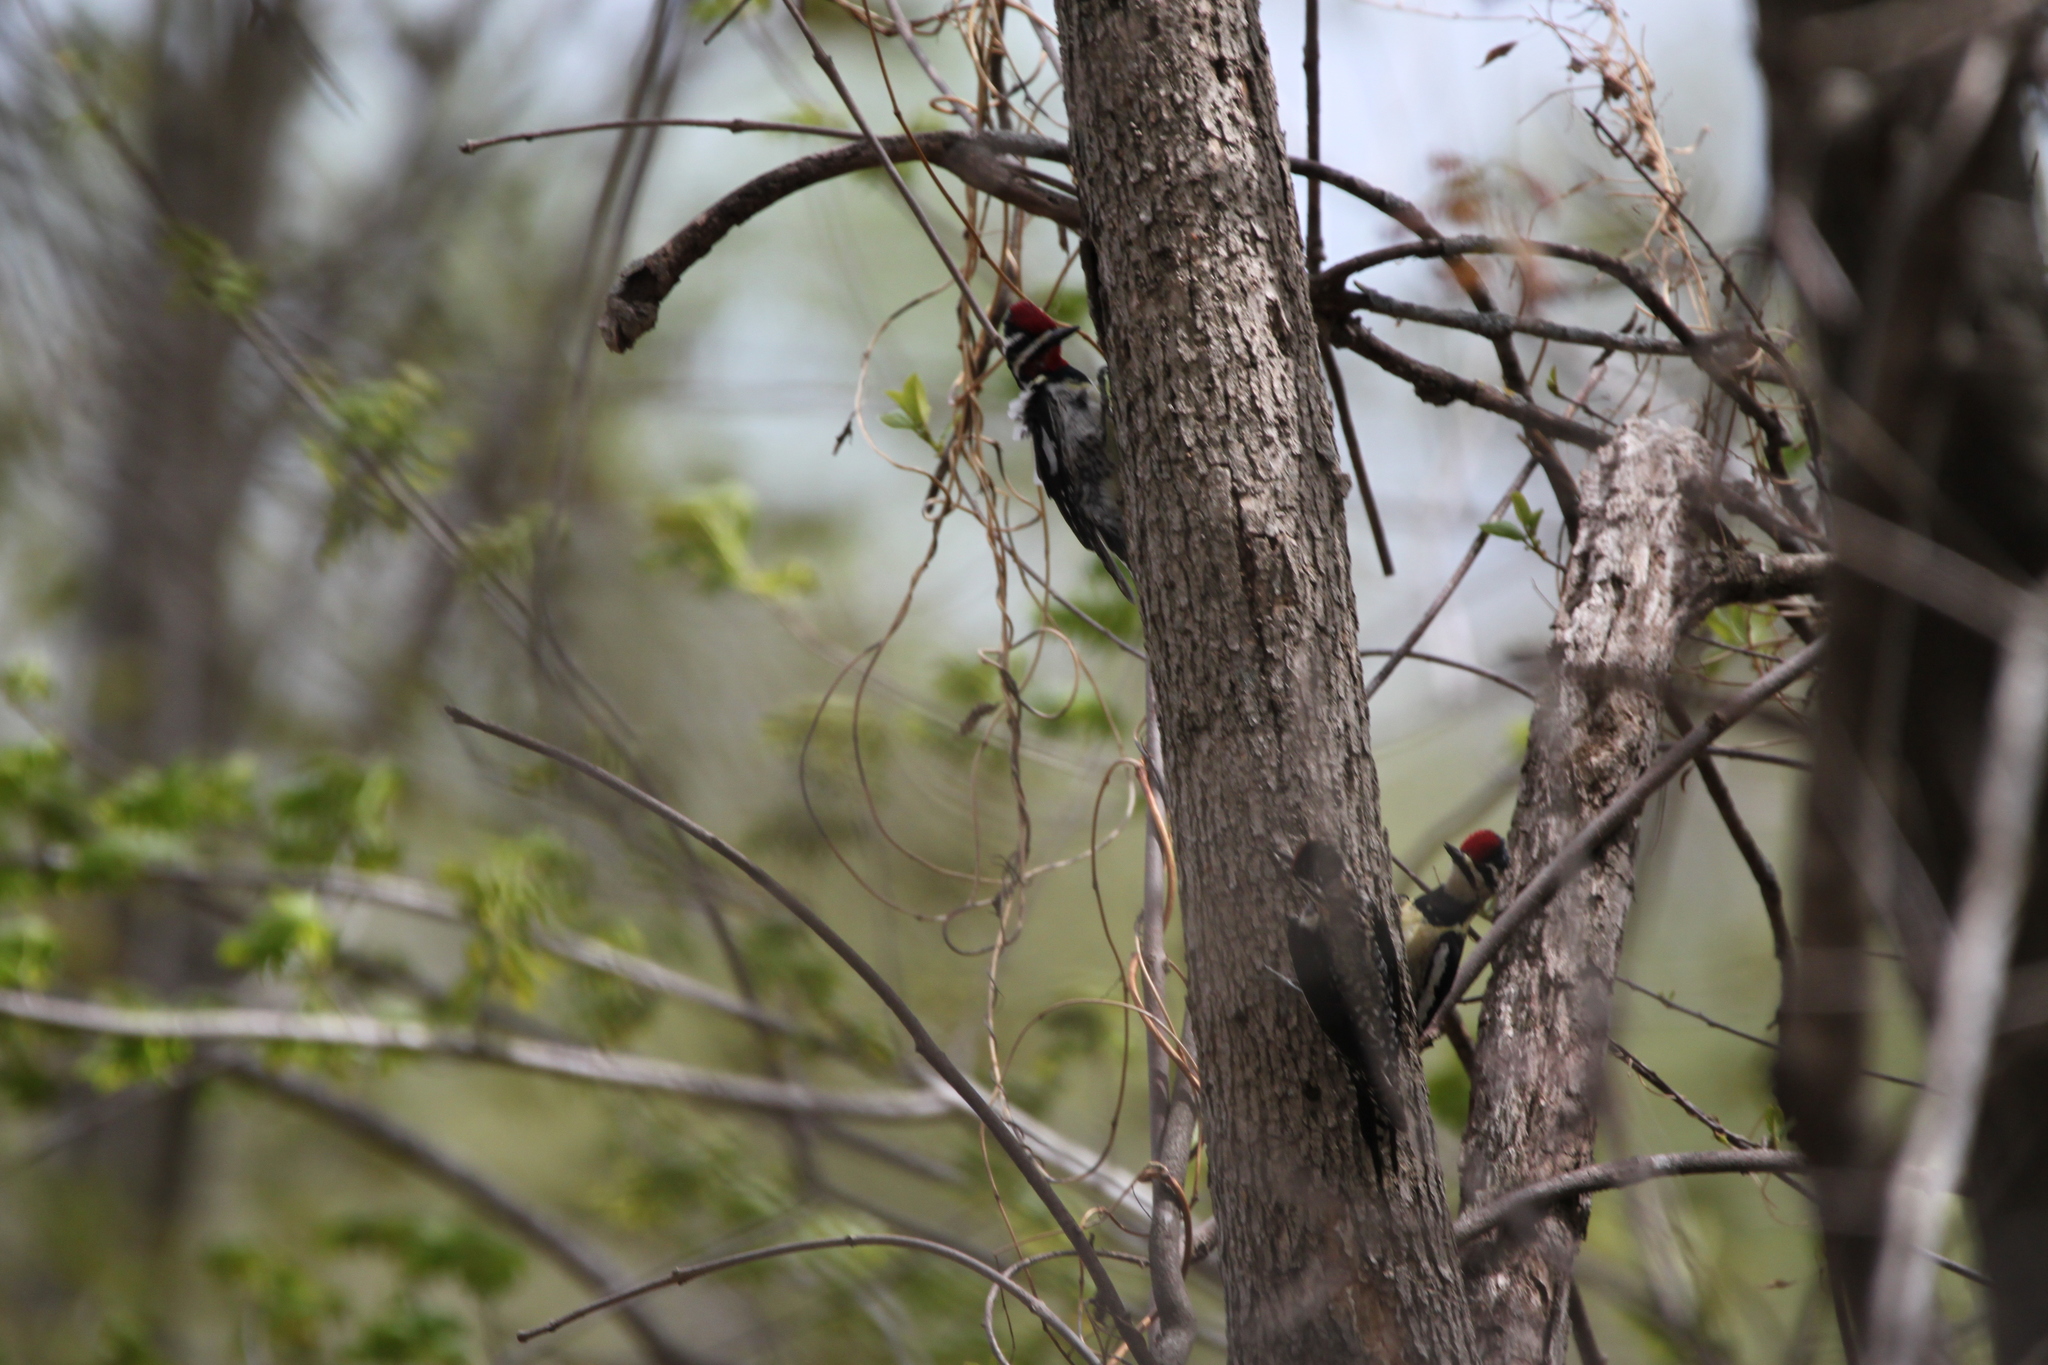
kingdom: Animalia
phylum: Chordata
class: Aves
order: Piciformes
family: Picidae
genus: Sphyrapicus
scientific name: Sphyrapicus varius
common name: Yellow-bellied sapsucker
